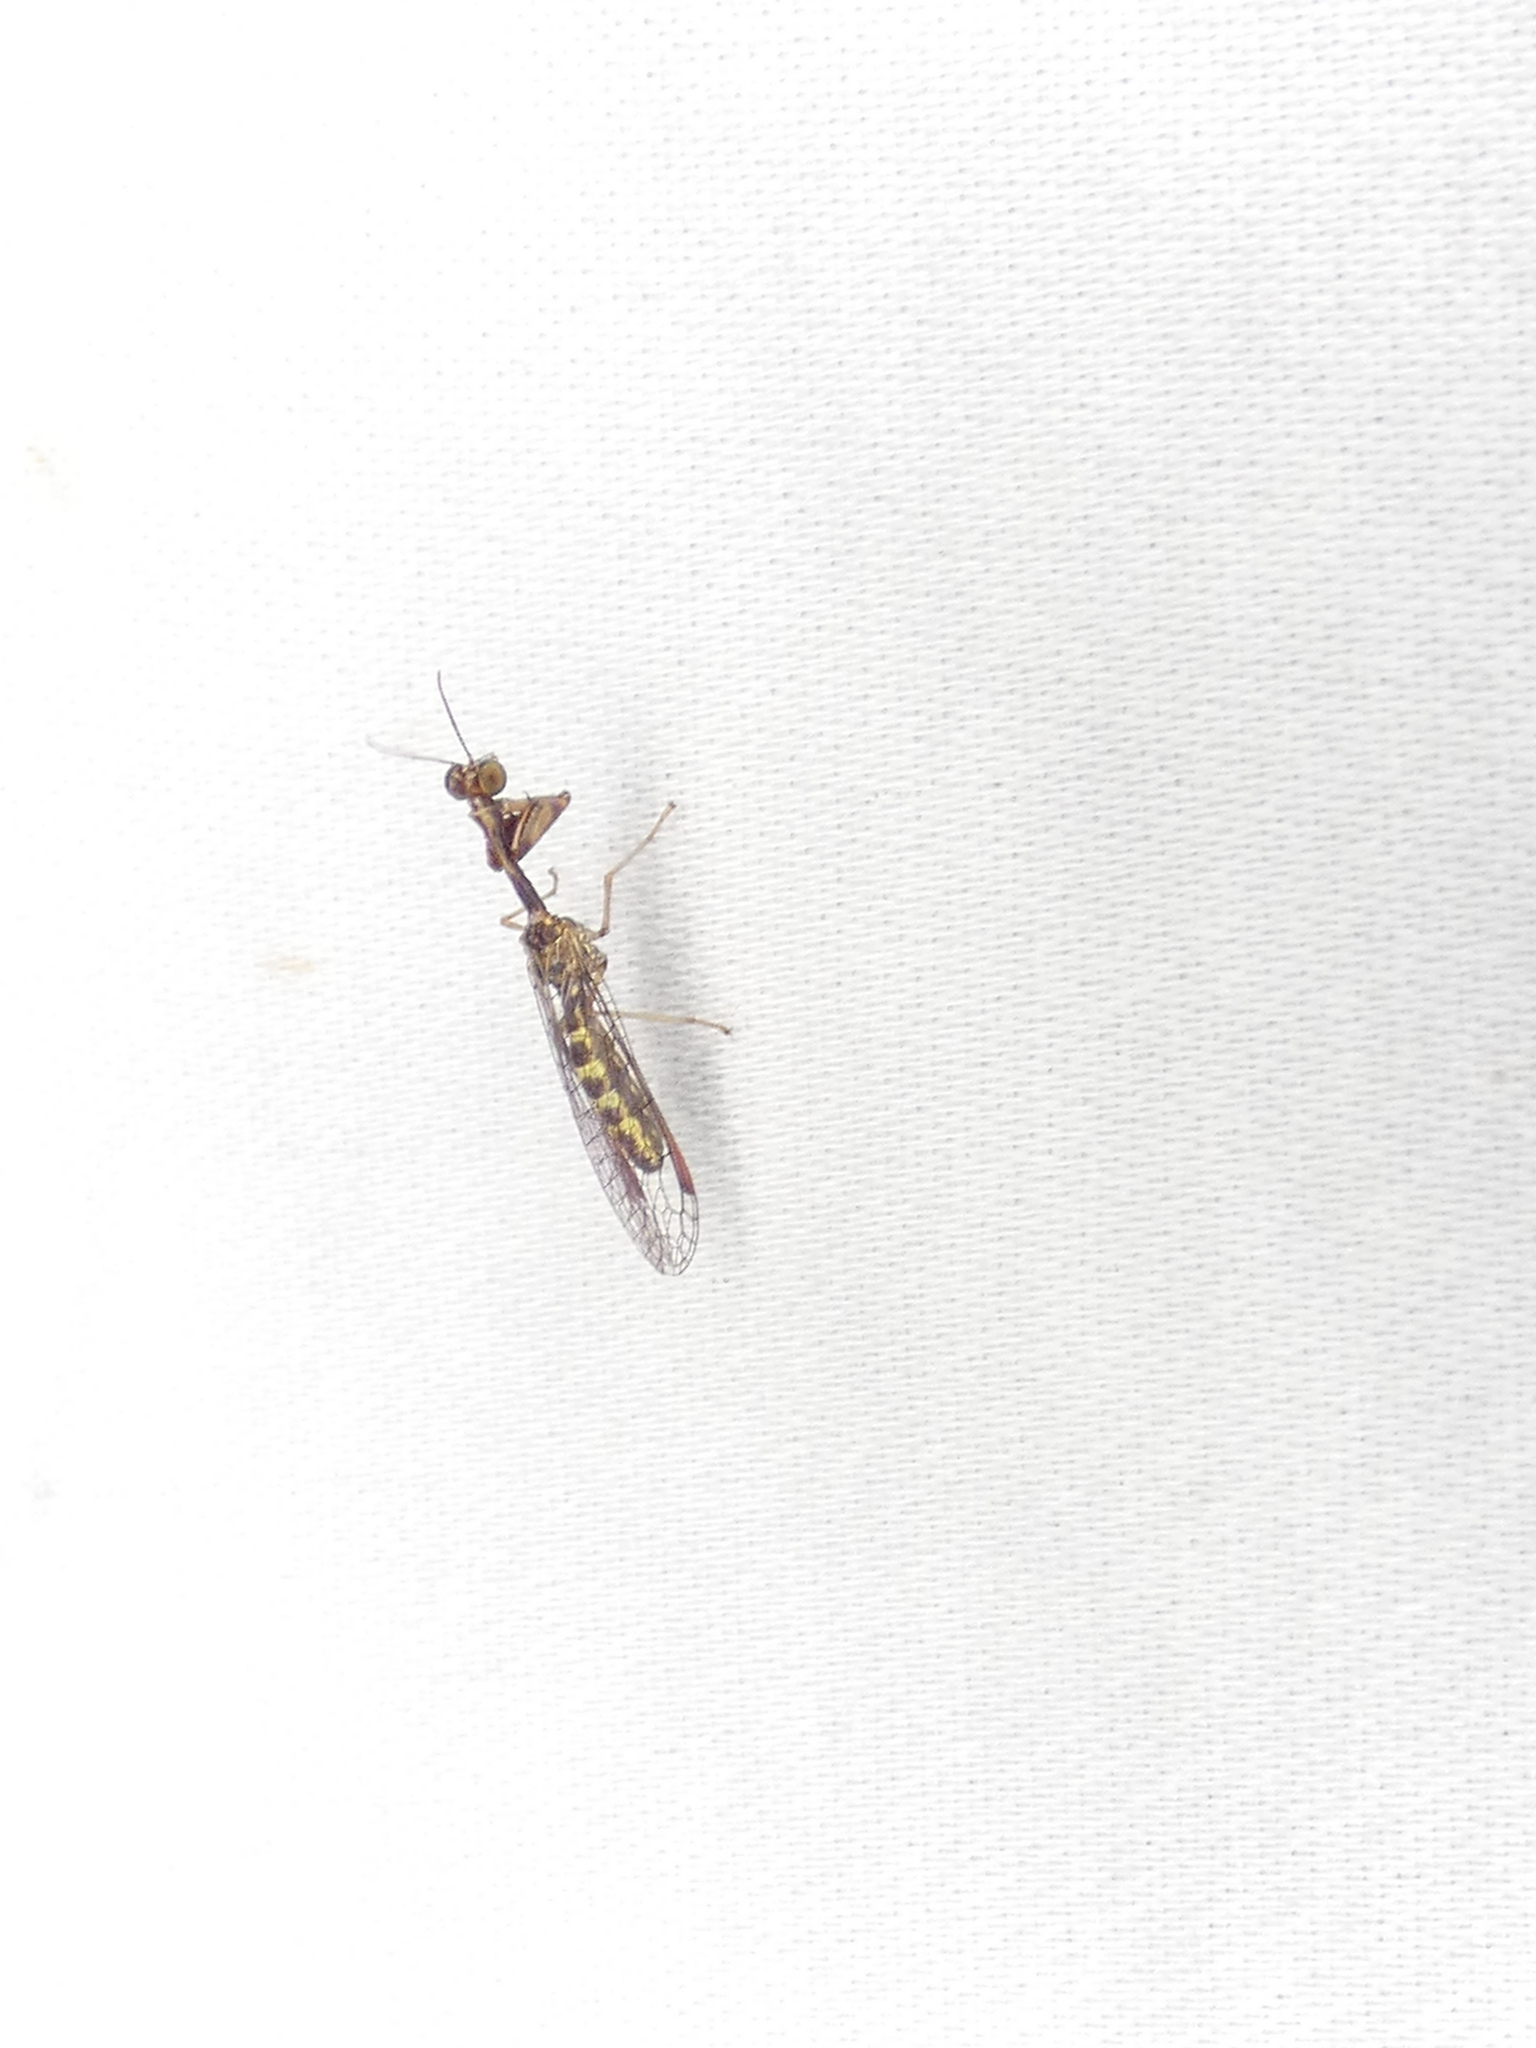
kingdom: Animalia
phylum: Arthropoda
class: Insecta
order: Neuroptera
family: Mantispidae
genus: Leptomantispa
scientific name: Leptomantispa pulchella
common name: Stevens's mantidfly
